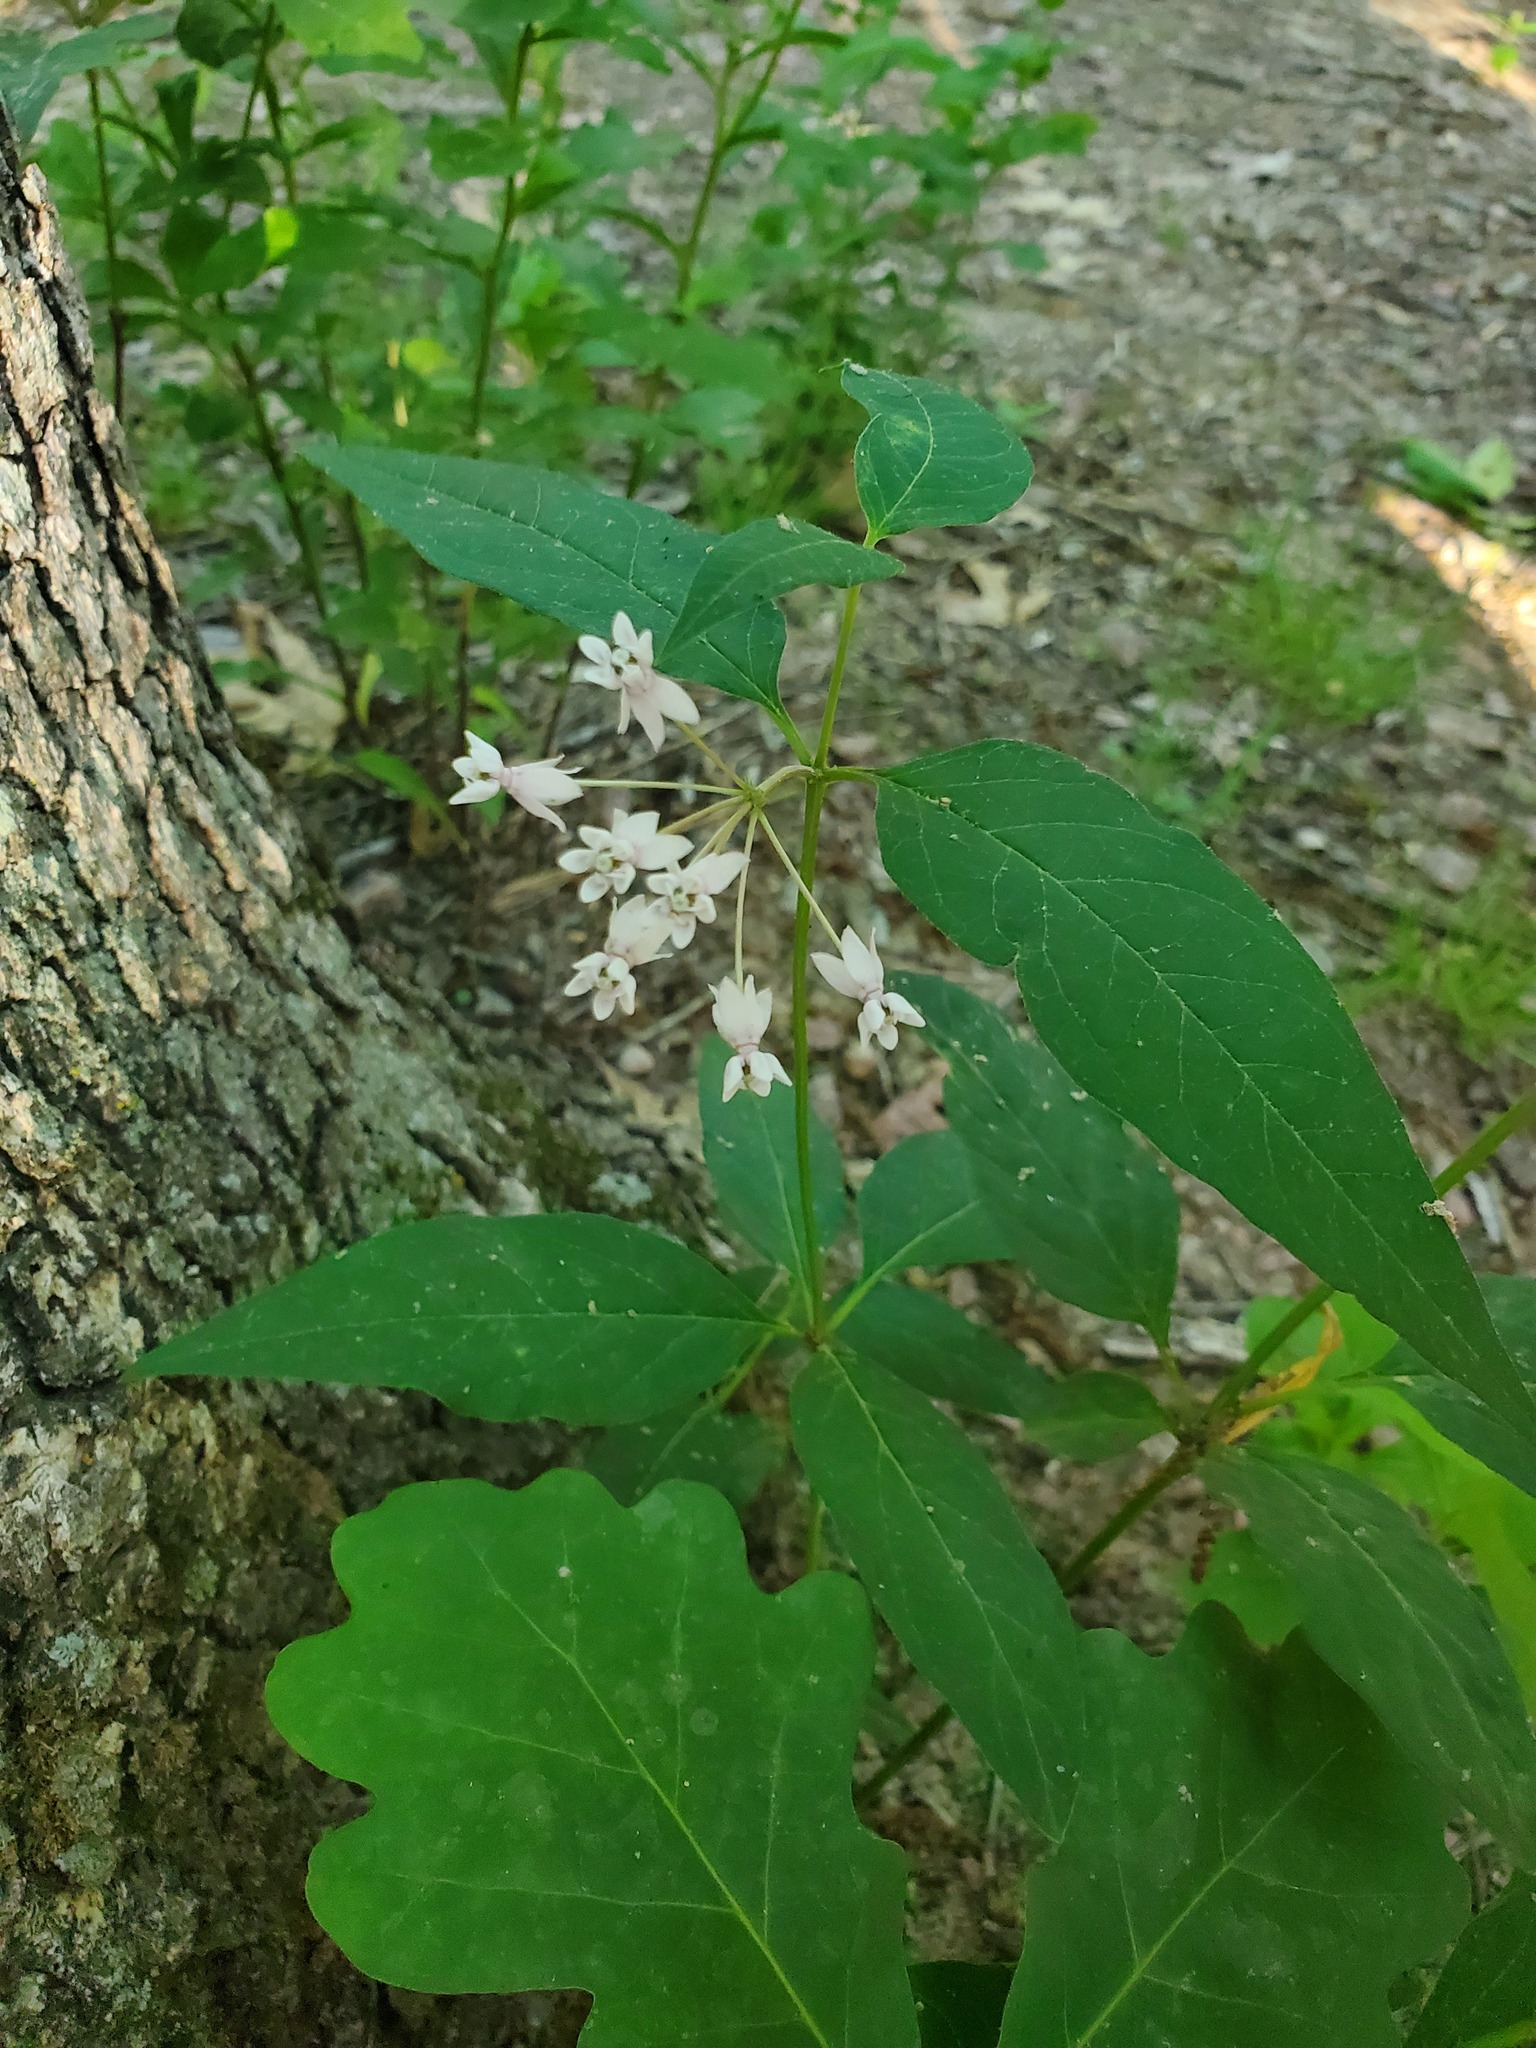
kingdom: Plantae
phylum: Tracheophyta
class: Magnoliopsida
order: Gentianales
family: Apocynaceae
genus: Asclepias
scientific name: Asclepias quadrifolia
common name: Whorled milkweed
